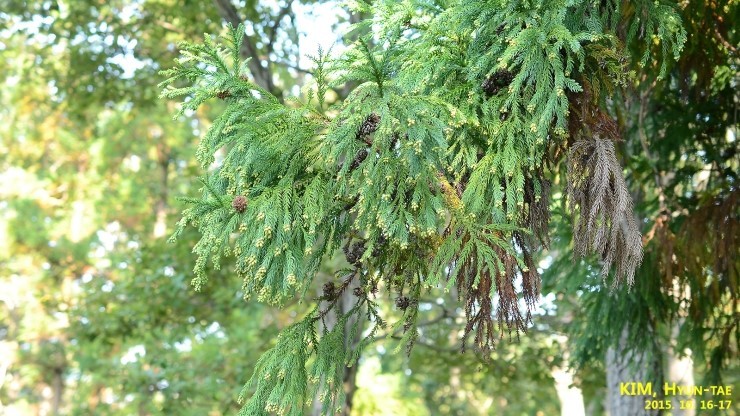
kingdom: Plantae
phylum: Tracheophyta
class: Pinopsida
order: Pinales
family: Cupressaceae
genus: Cryptomeria
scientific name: Cryptomeria japonica
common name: Japanese cedar
